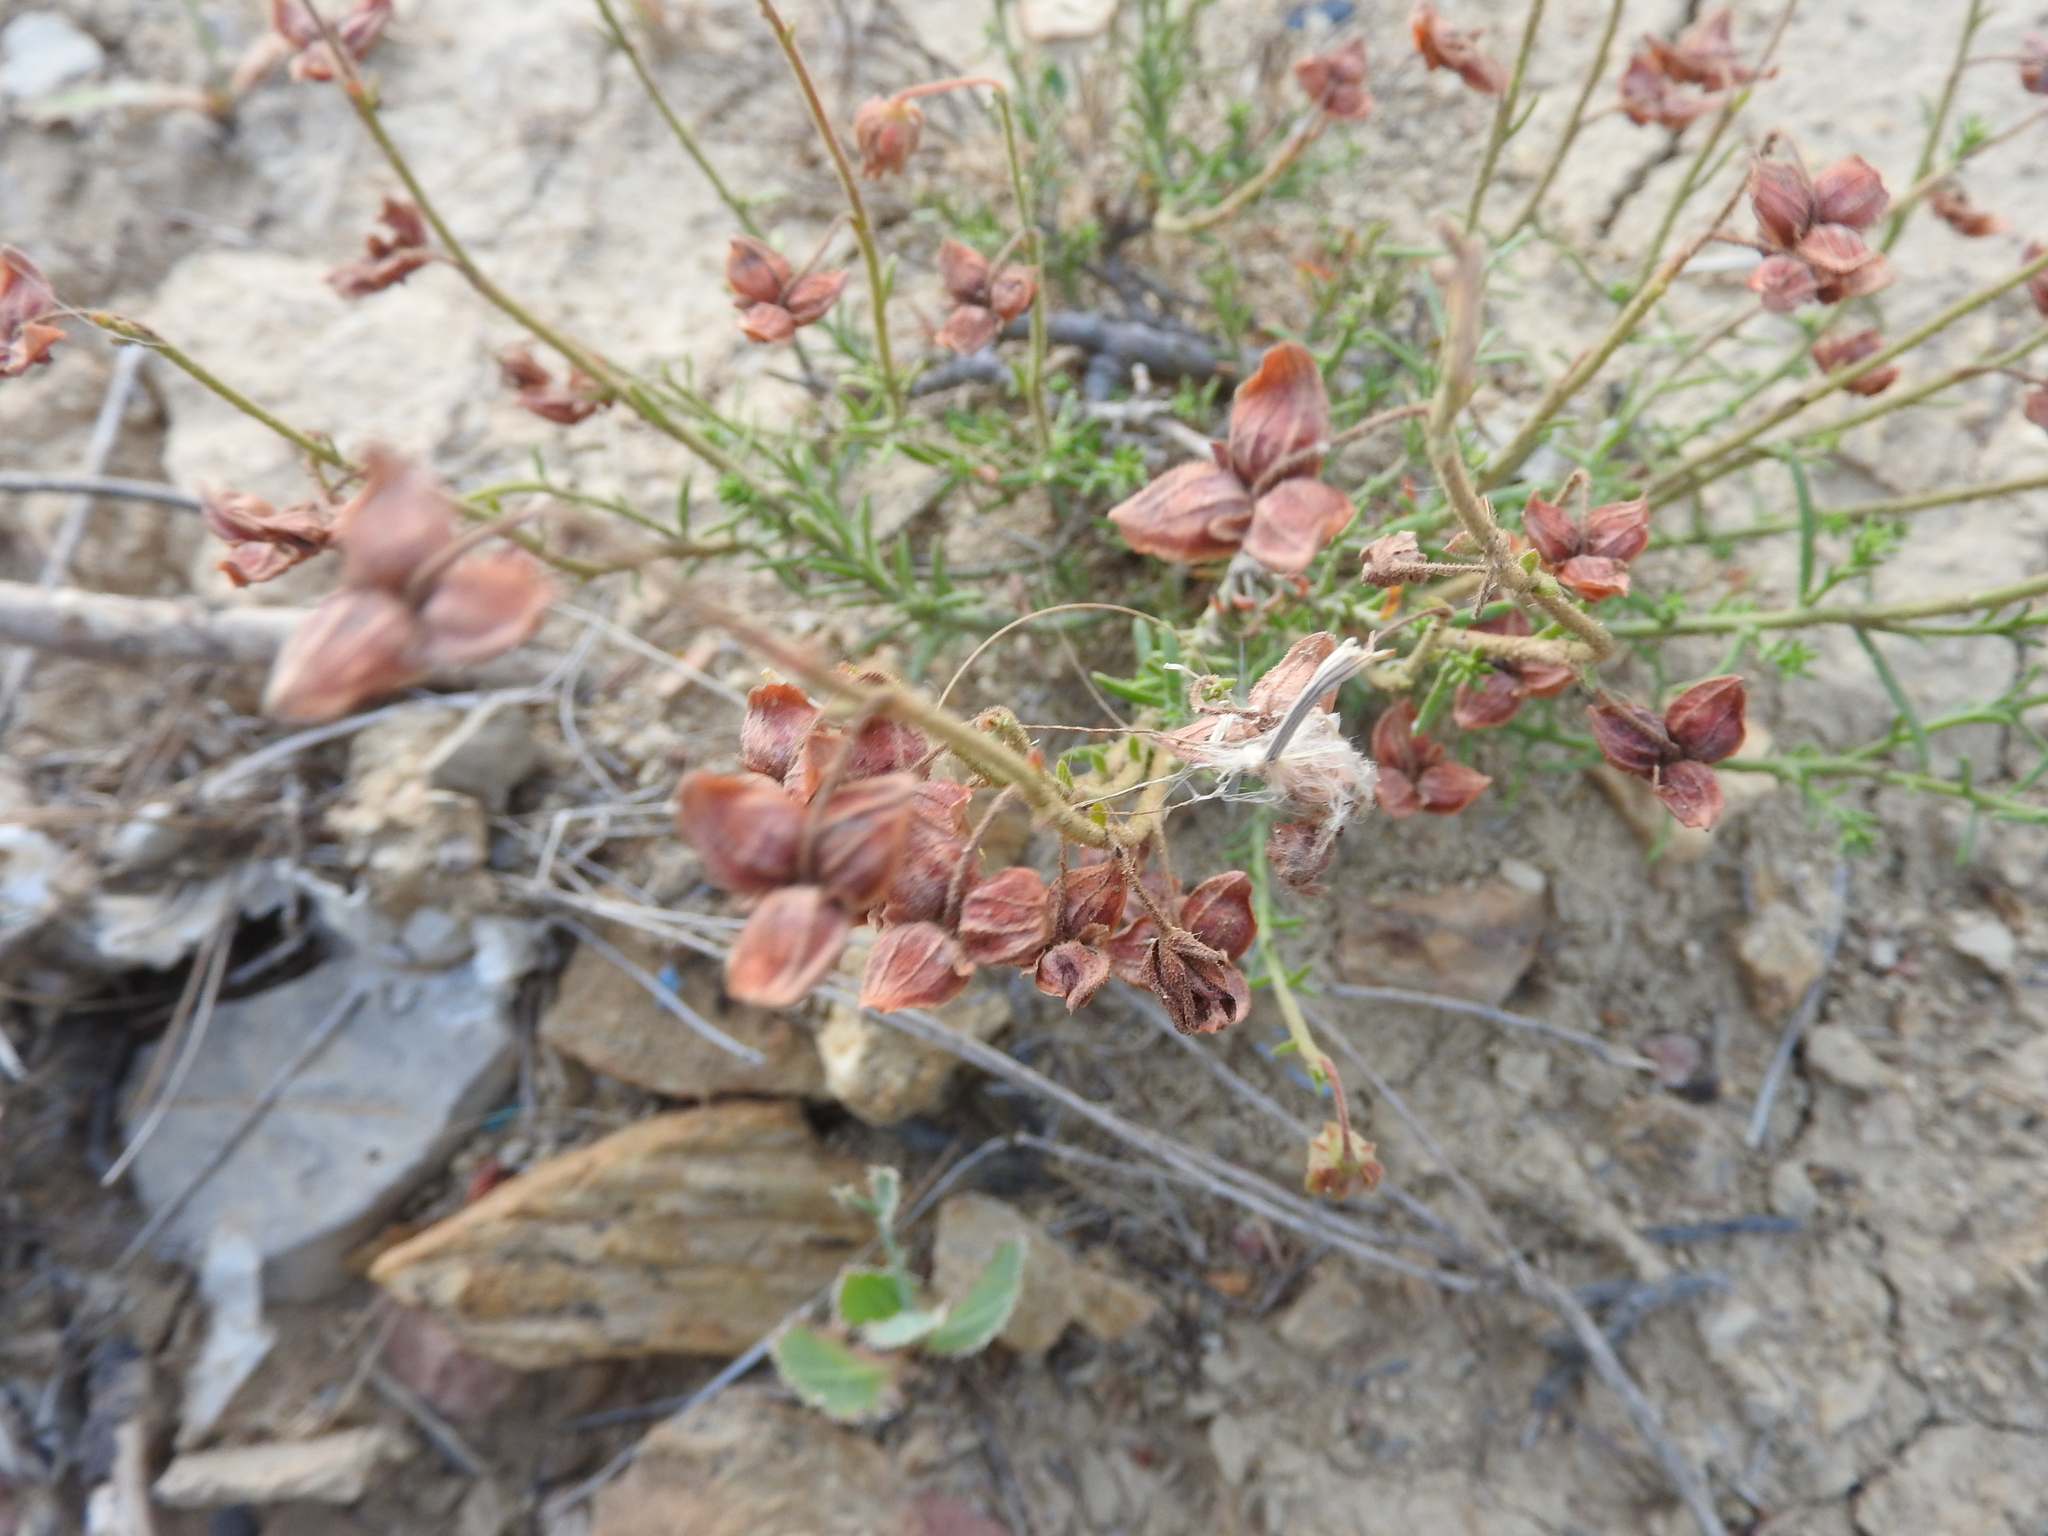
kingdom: Plantae
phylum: Tracheophyta
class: Magnoliopsida
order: Malvales
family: Cistaceae
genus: Fumana
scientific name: Fumana scoparia
